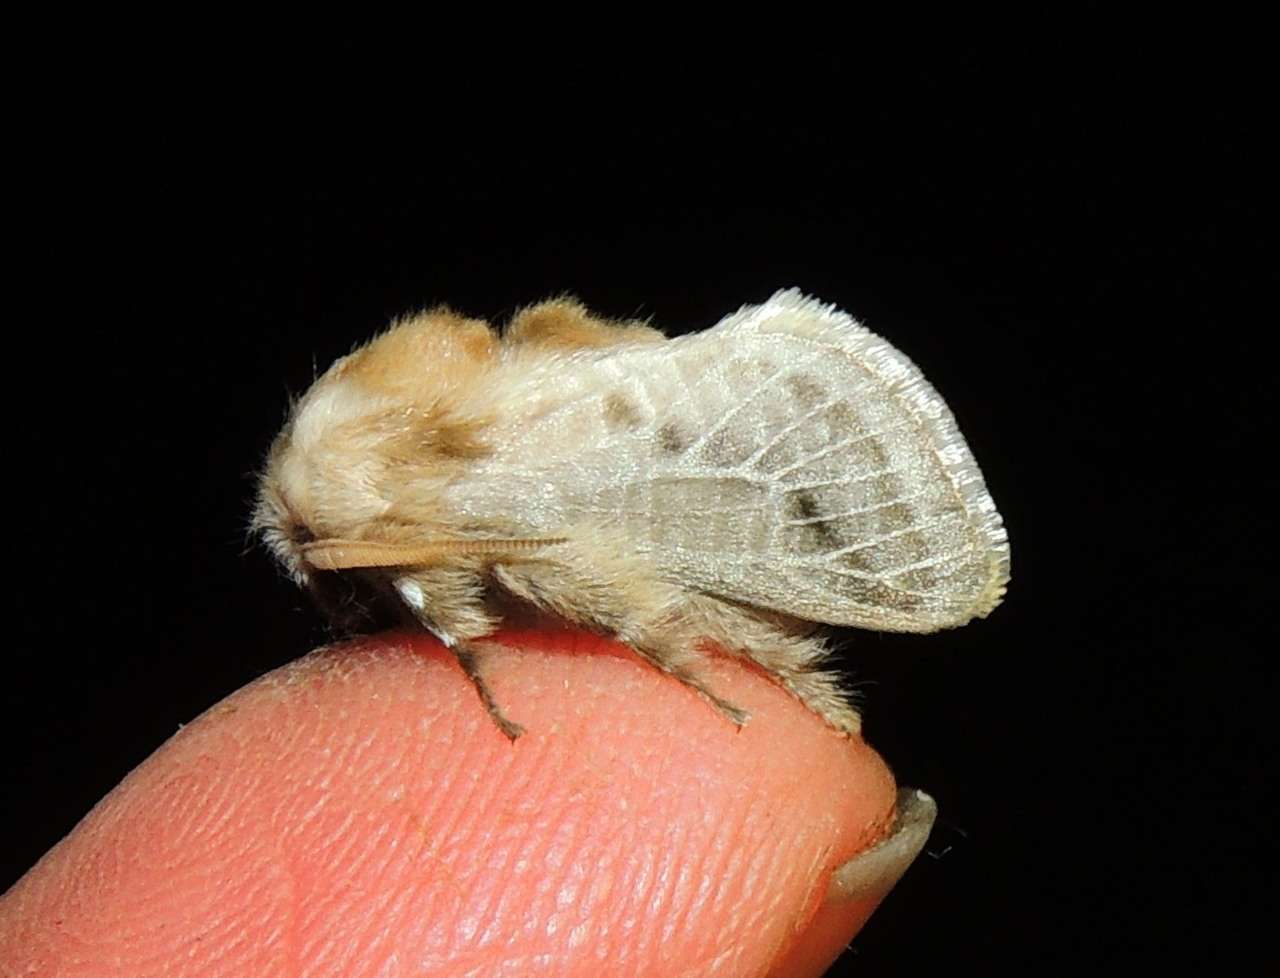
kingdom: Animalia
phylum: Arthropoda
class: Insecta
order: Lepidoptera
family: Limacodidae
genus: Doratifera
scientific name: Doratifera pinguis
